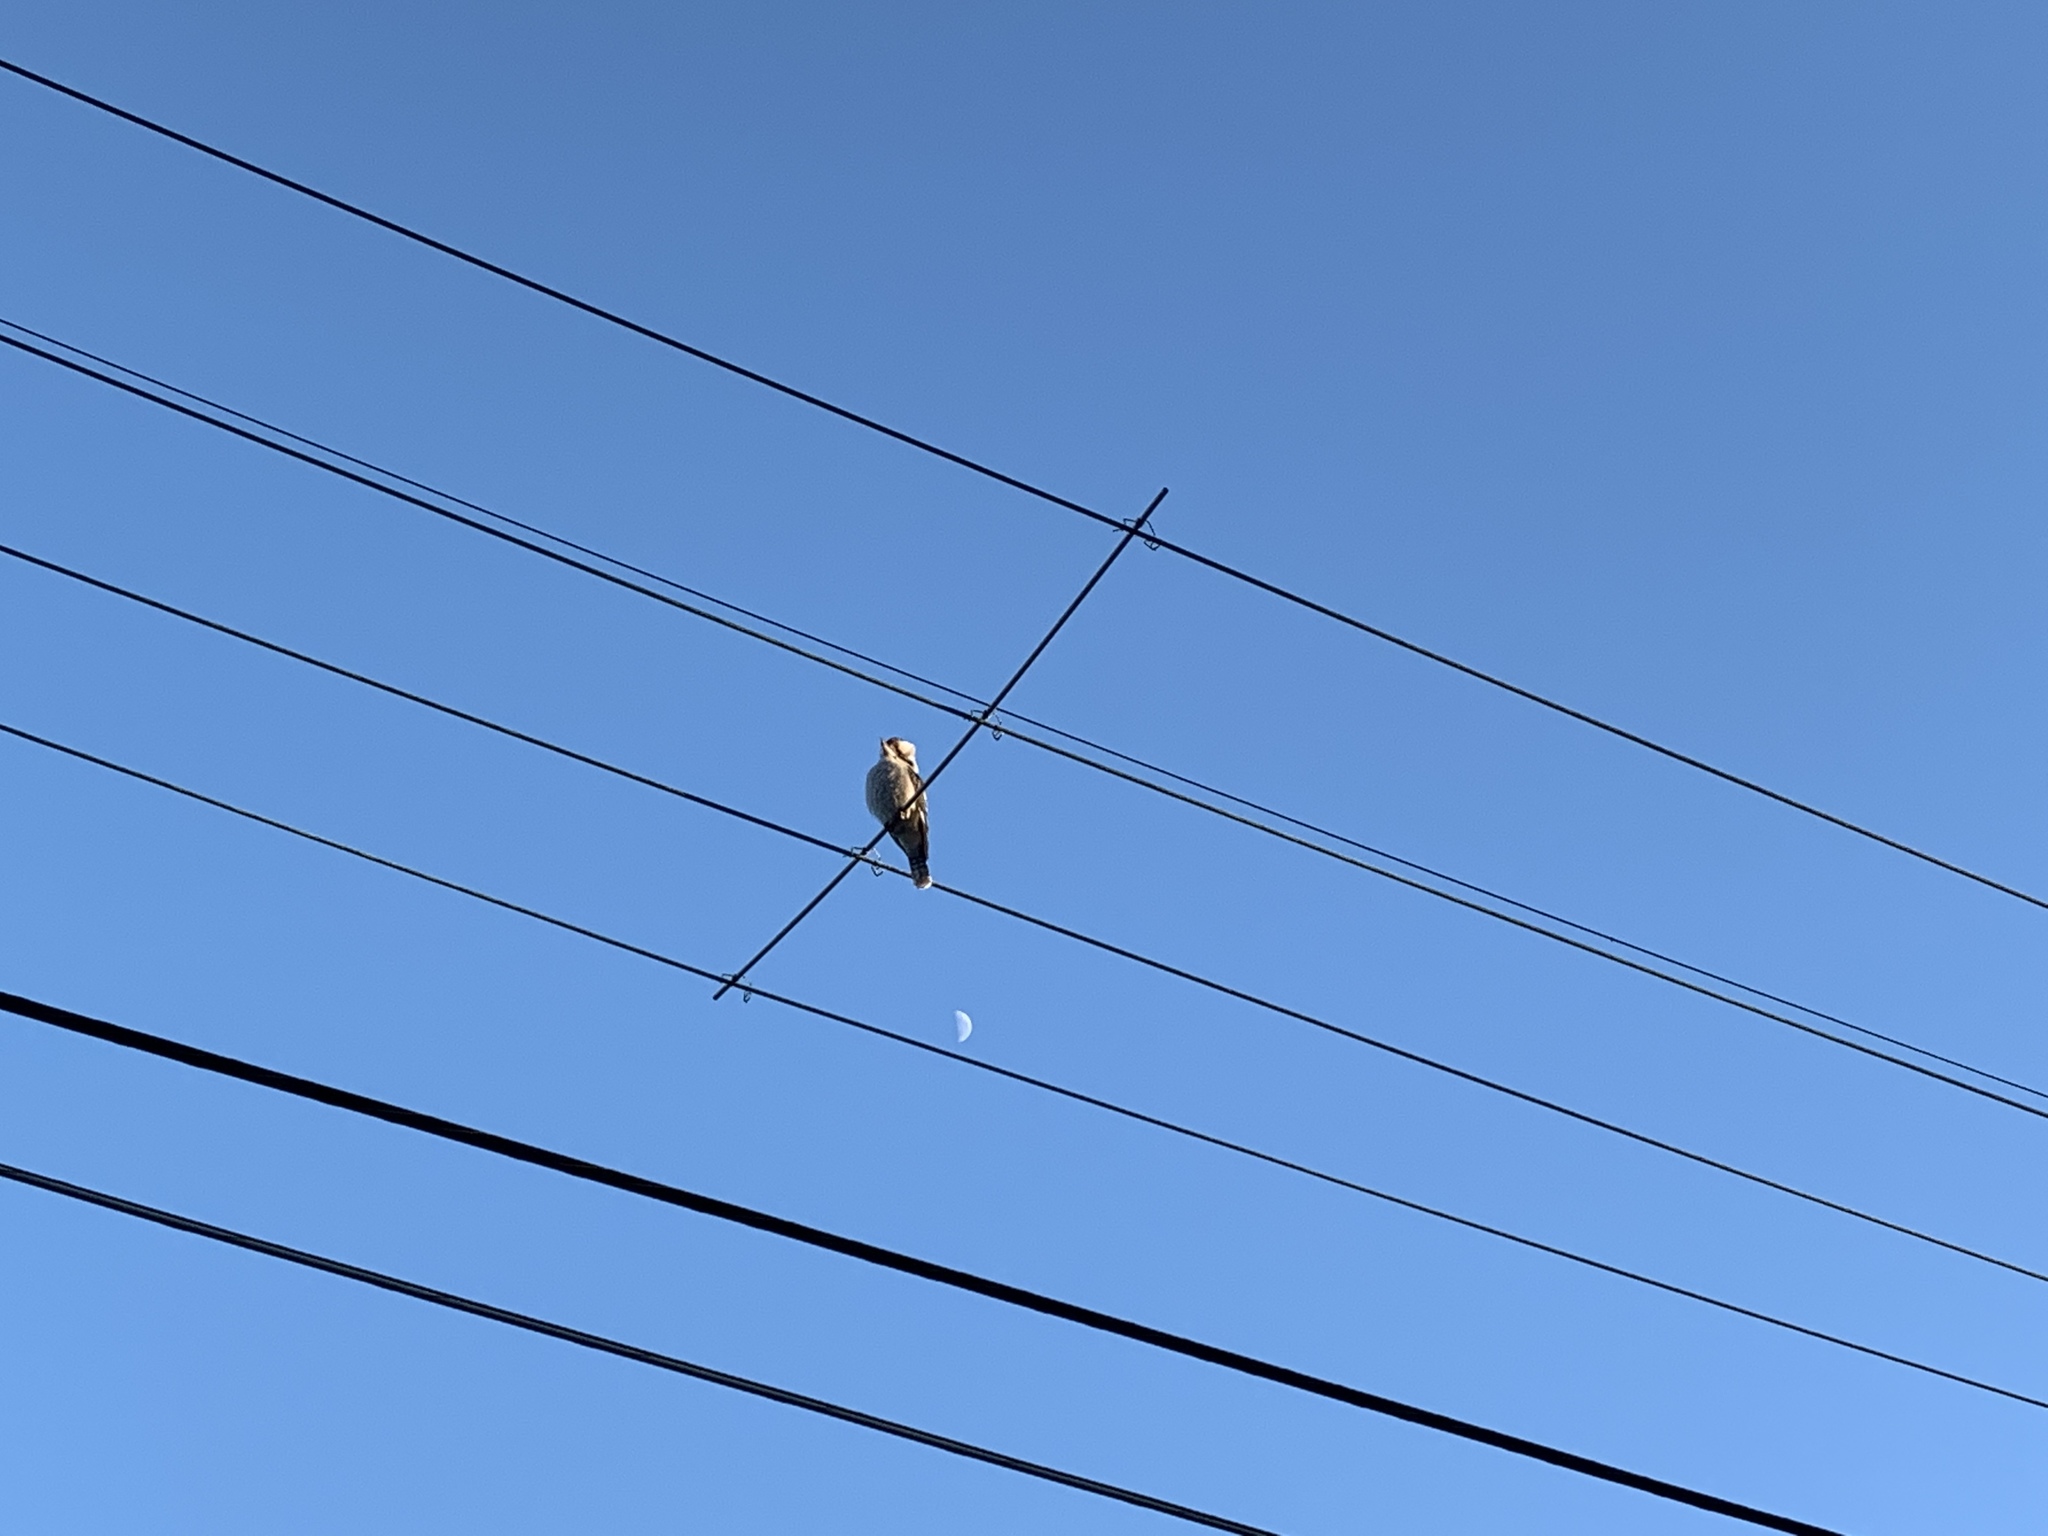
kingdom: Animalia
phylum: Chordata
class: Aves
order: Coraciiformes
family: Alcedinidae
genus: Dacelo
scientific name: Dacelo novaeguineae
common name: Laughing kookaburra
